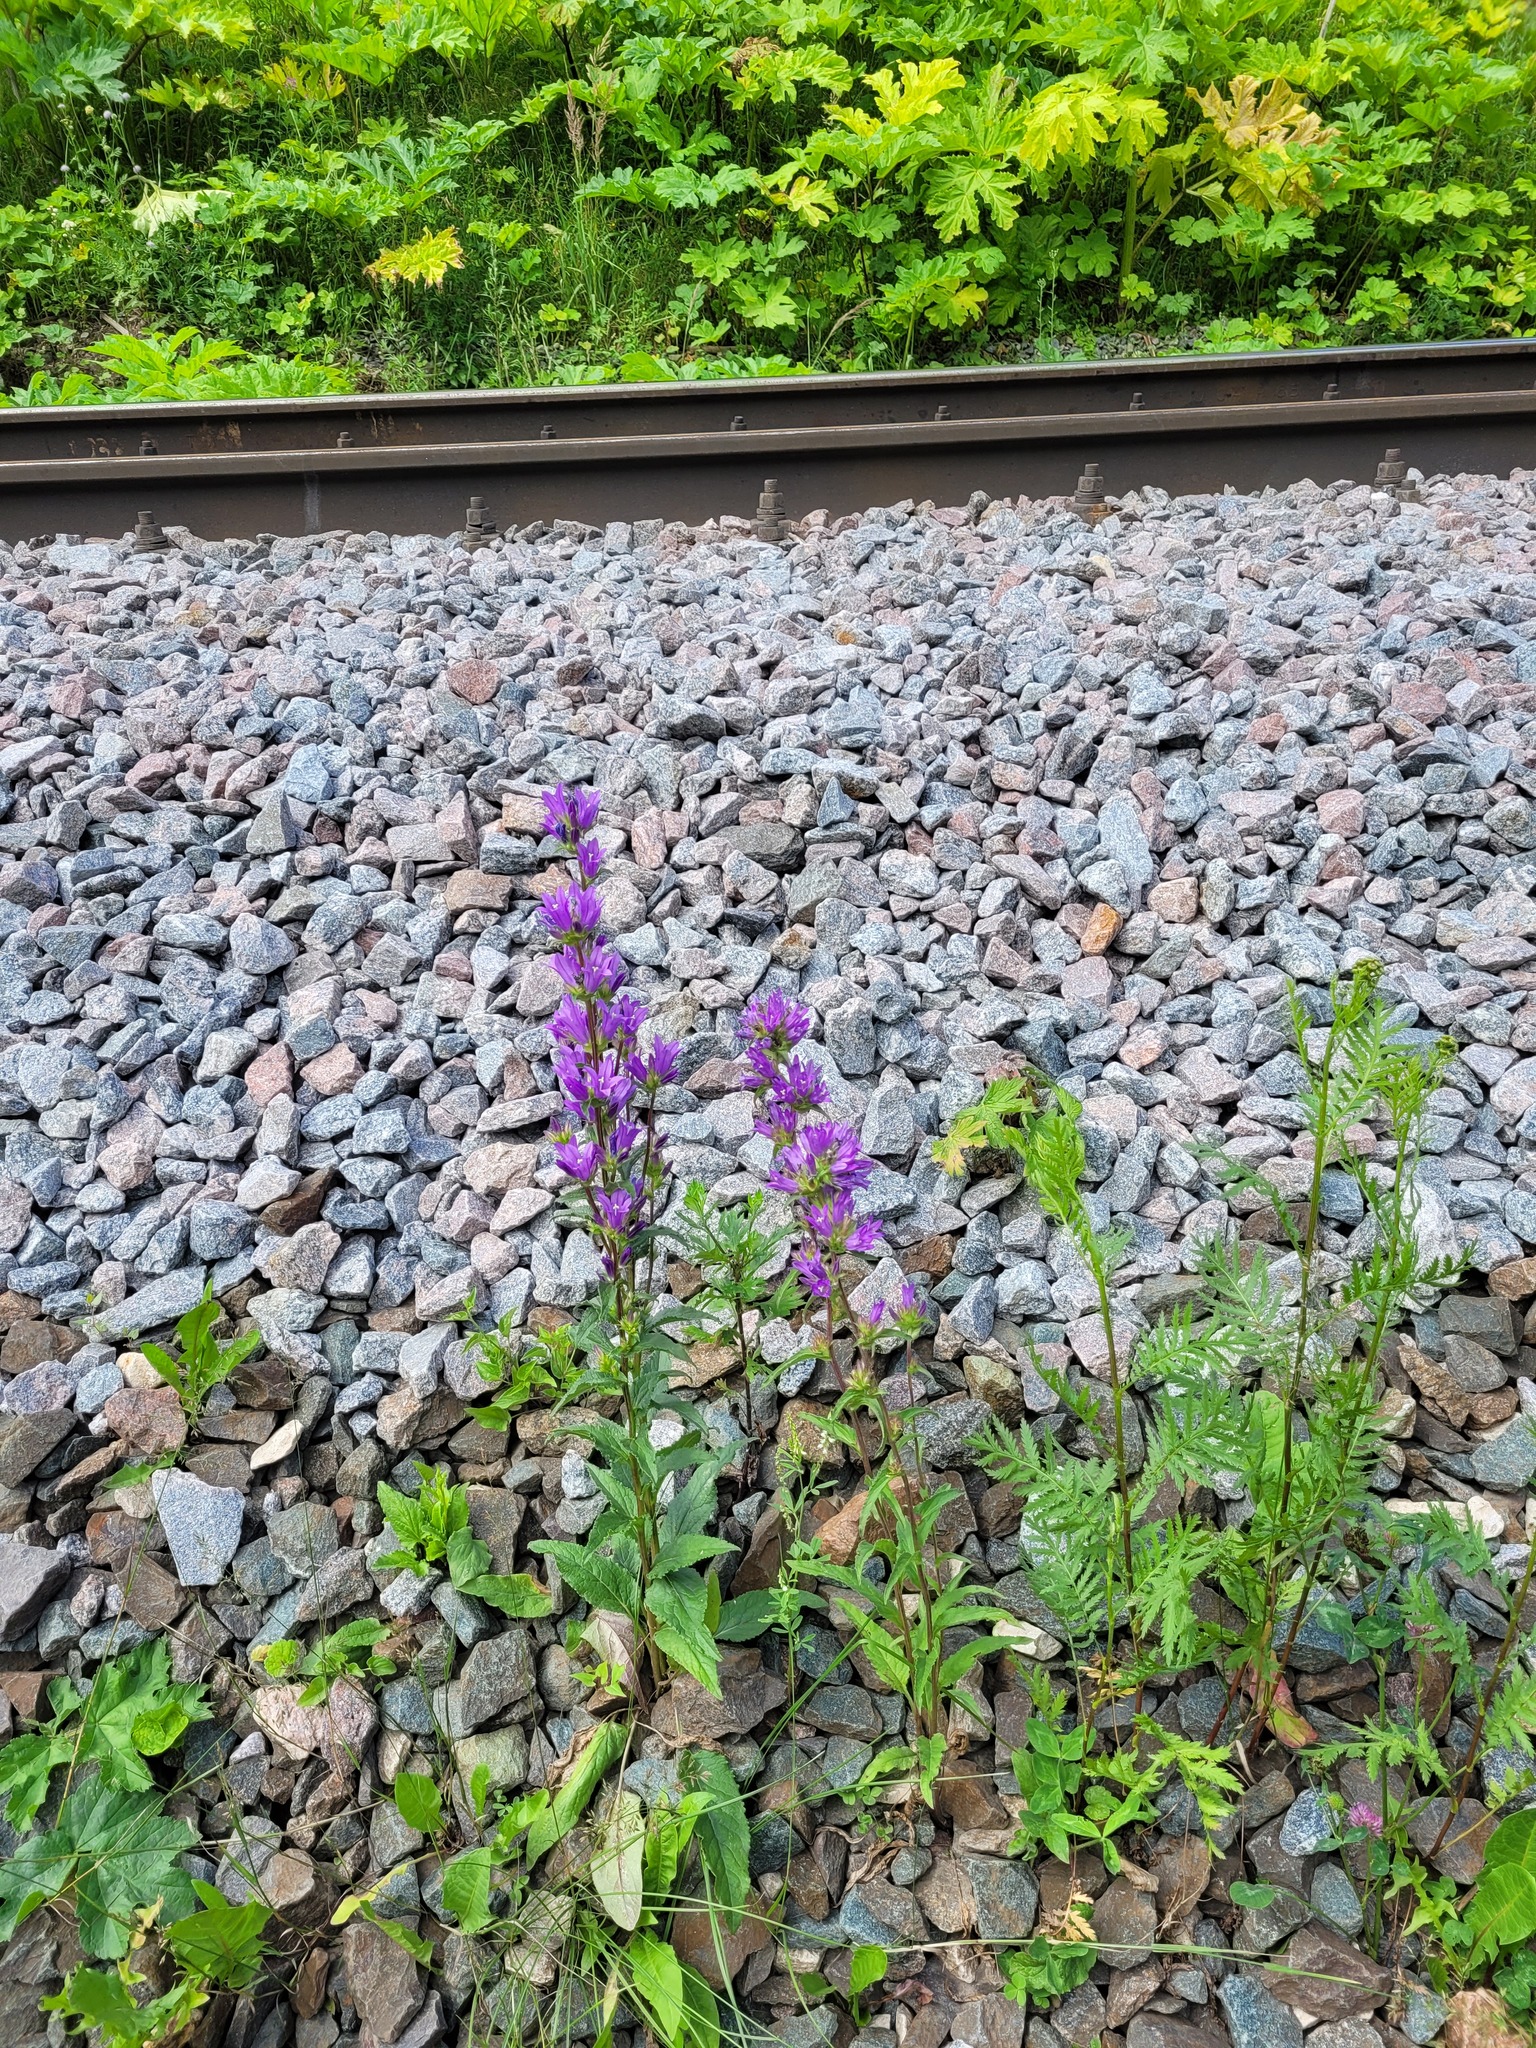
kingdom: Plantae
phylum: Tracheophyta
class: Magnoliopsida
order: Asterales
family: Campanulaceae
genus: Campanula
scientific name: Campanula glomerata
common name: Clustered bellflower
